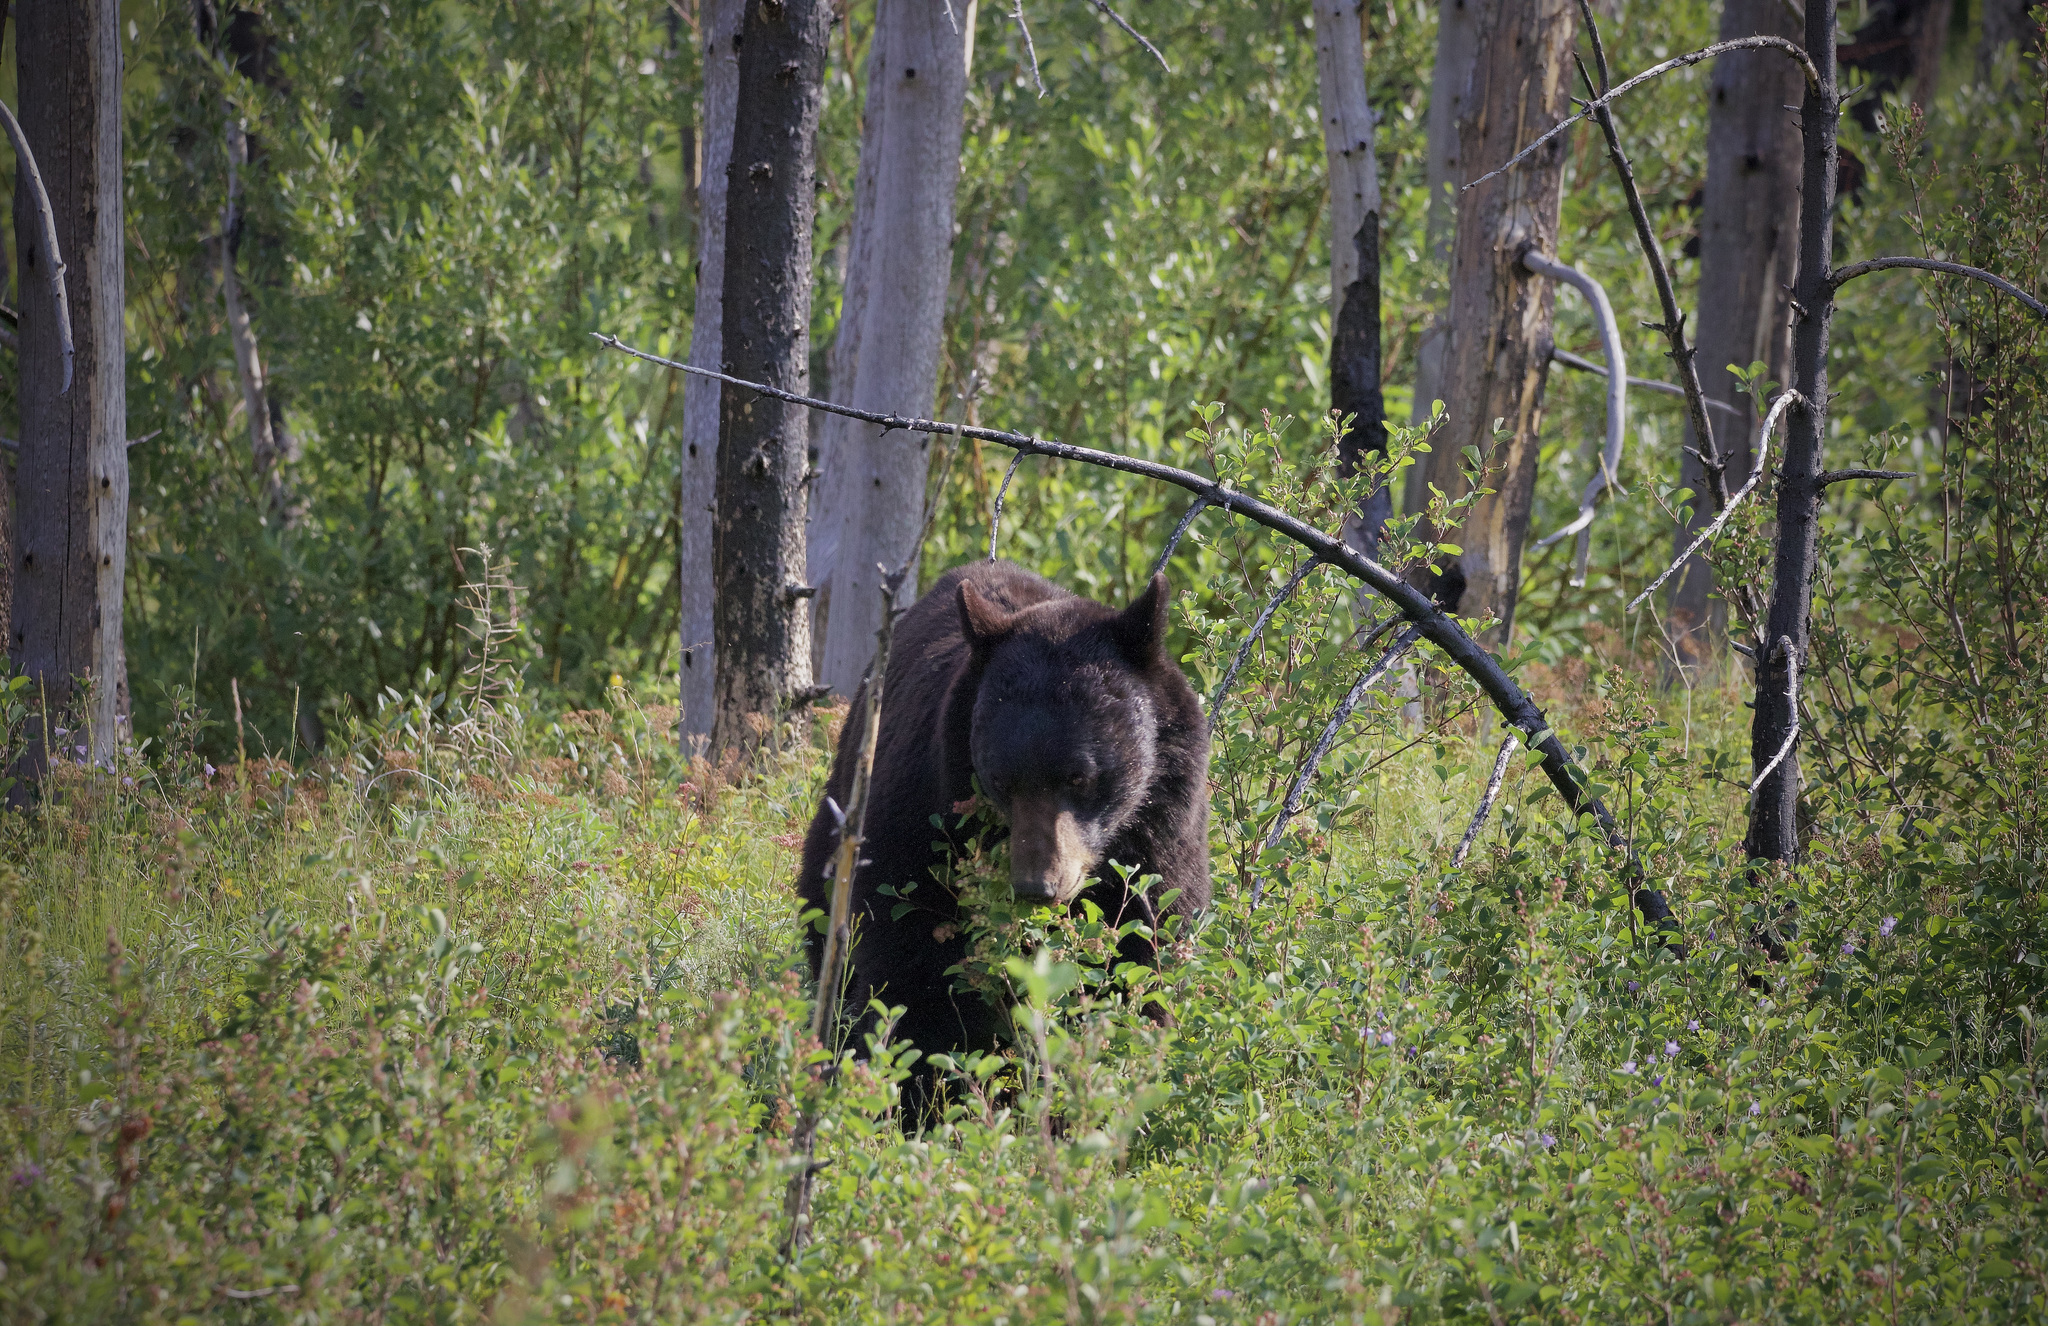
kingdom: Animalia
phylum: Chordata
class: Mammalia
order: Carnivora
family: Ursidae
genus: Ursus
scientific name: Ursus americanus
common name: American black bear
